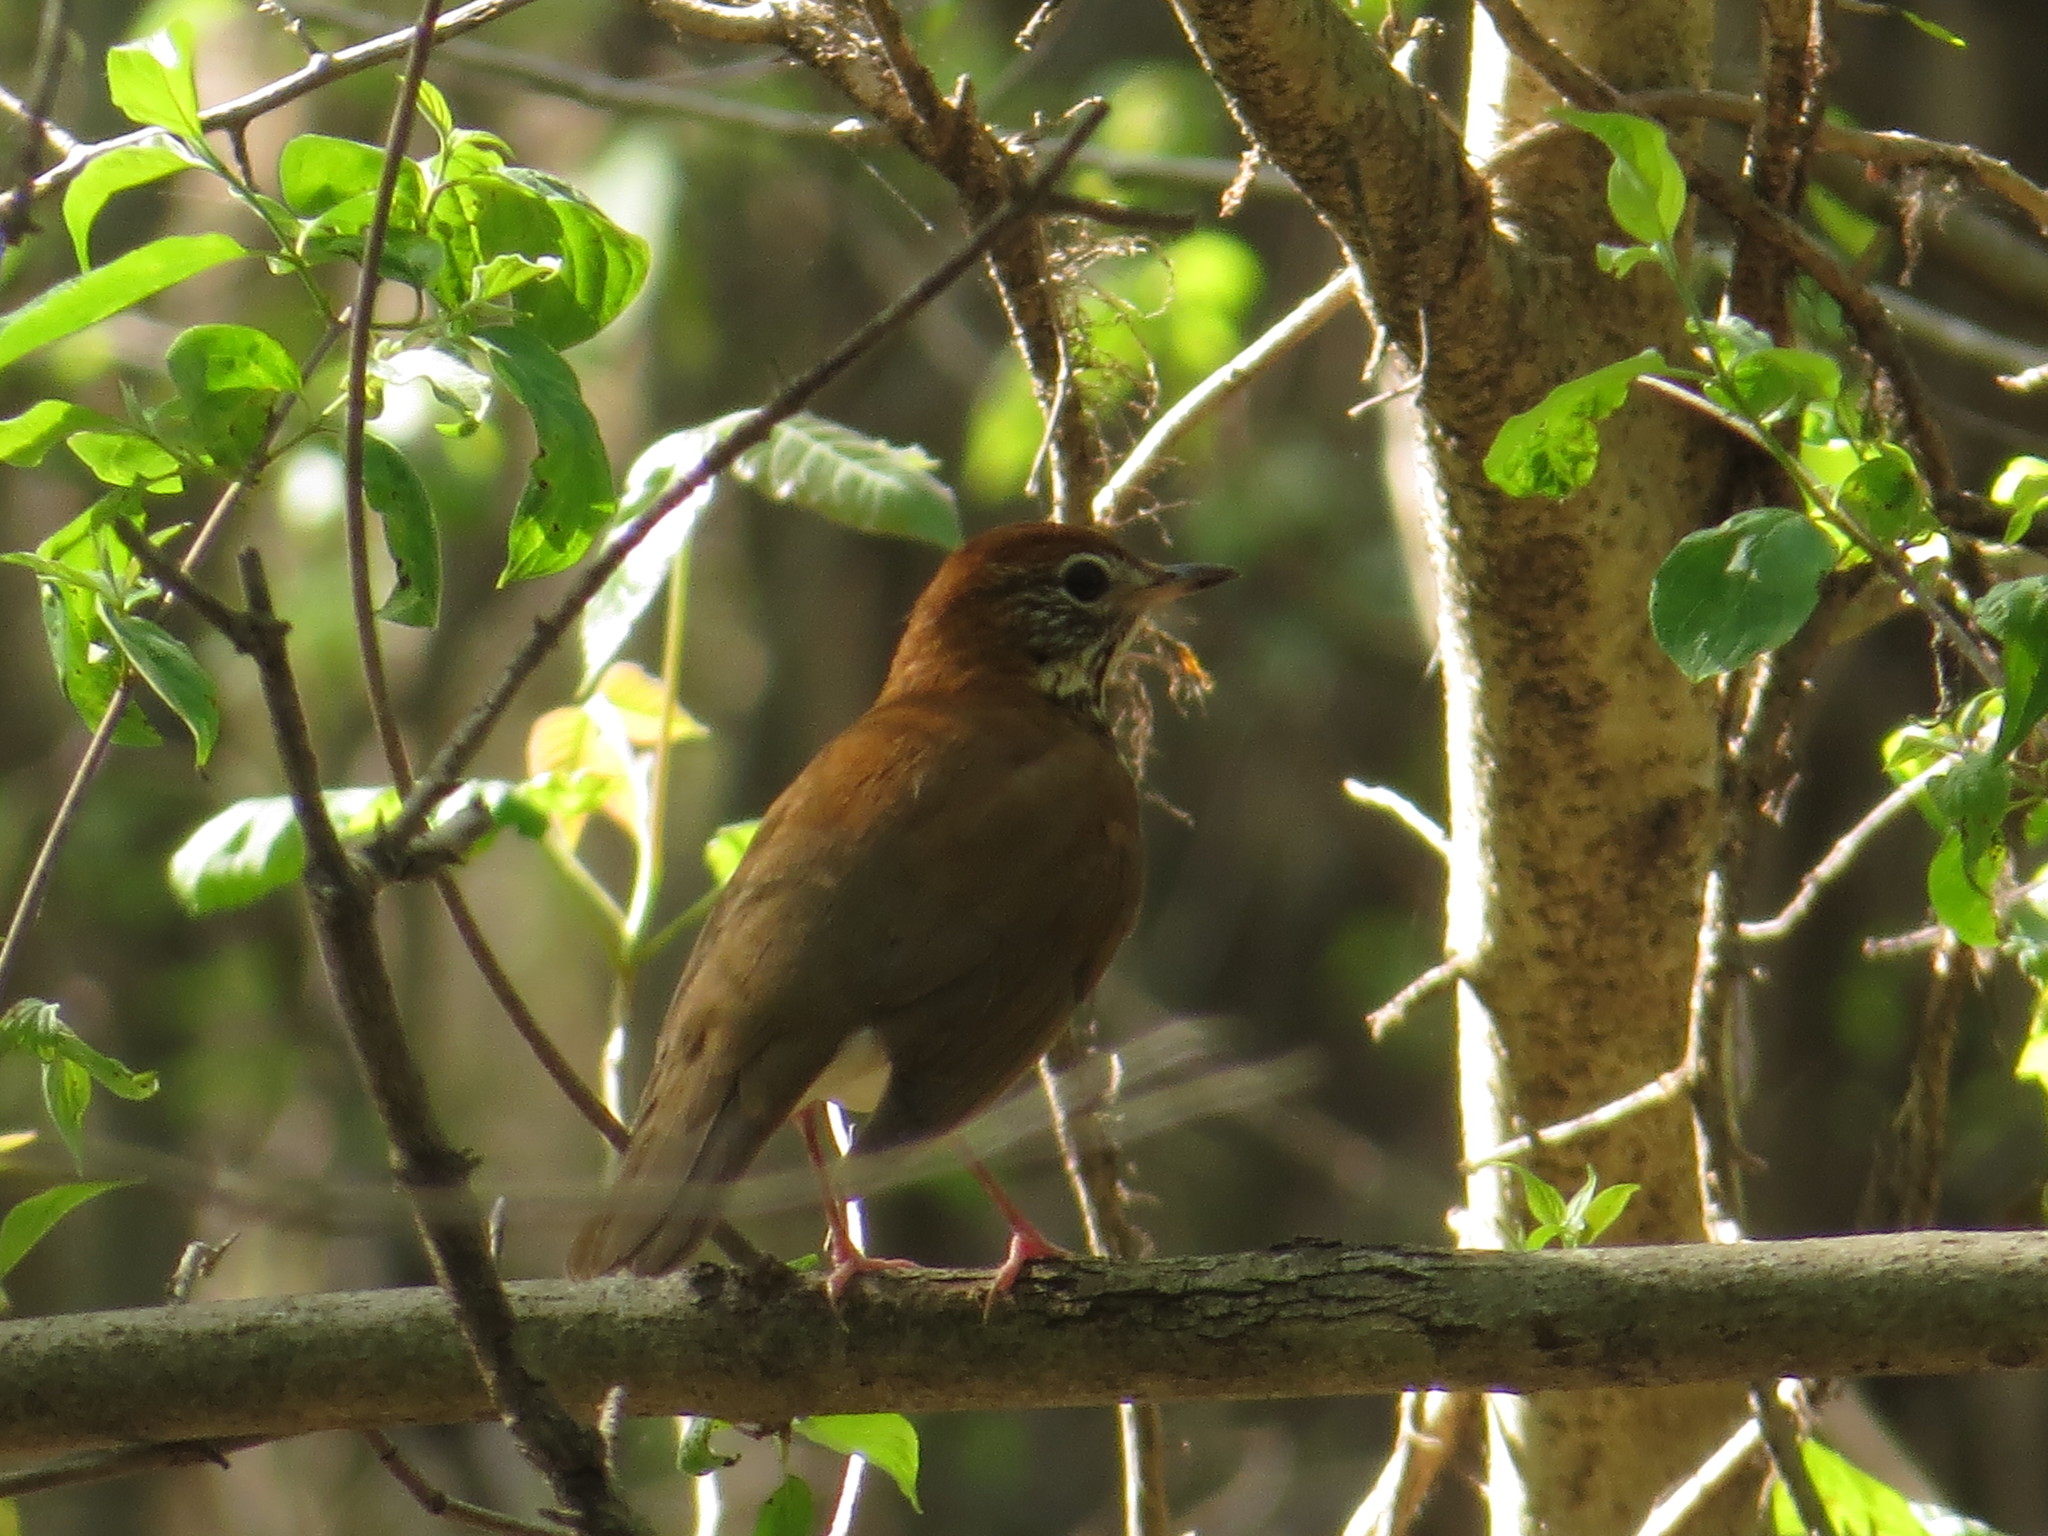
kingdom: Animalia
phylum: Chordata
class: Aves
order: Passeriformes
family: Turdidae
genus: Hylocichla
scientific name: Hylocichla mustelina
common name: Wood thrush
